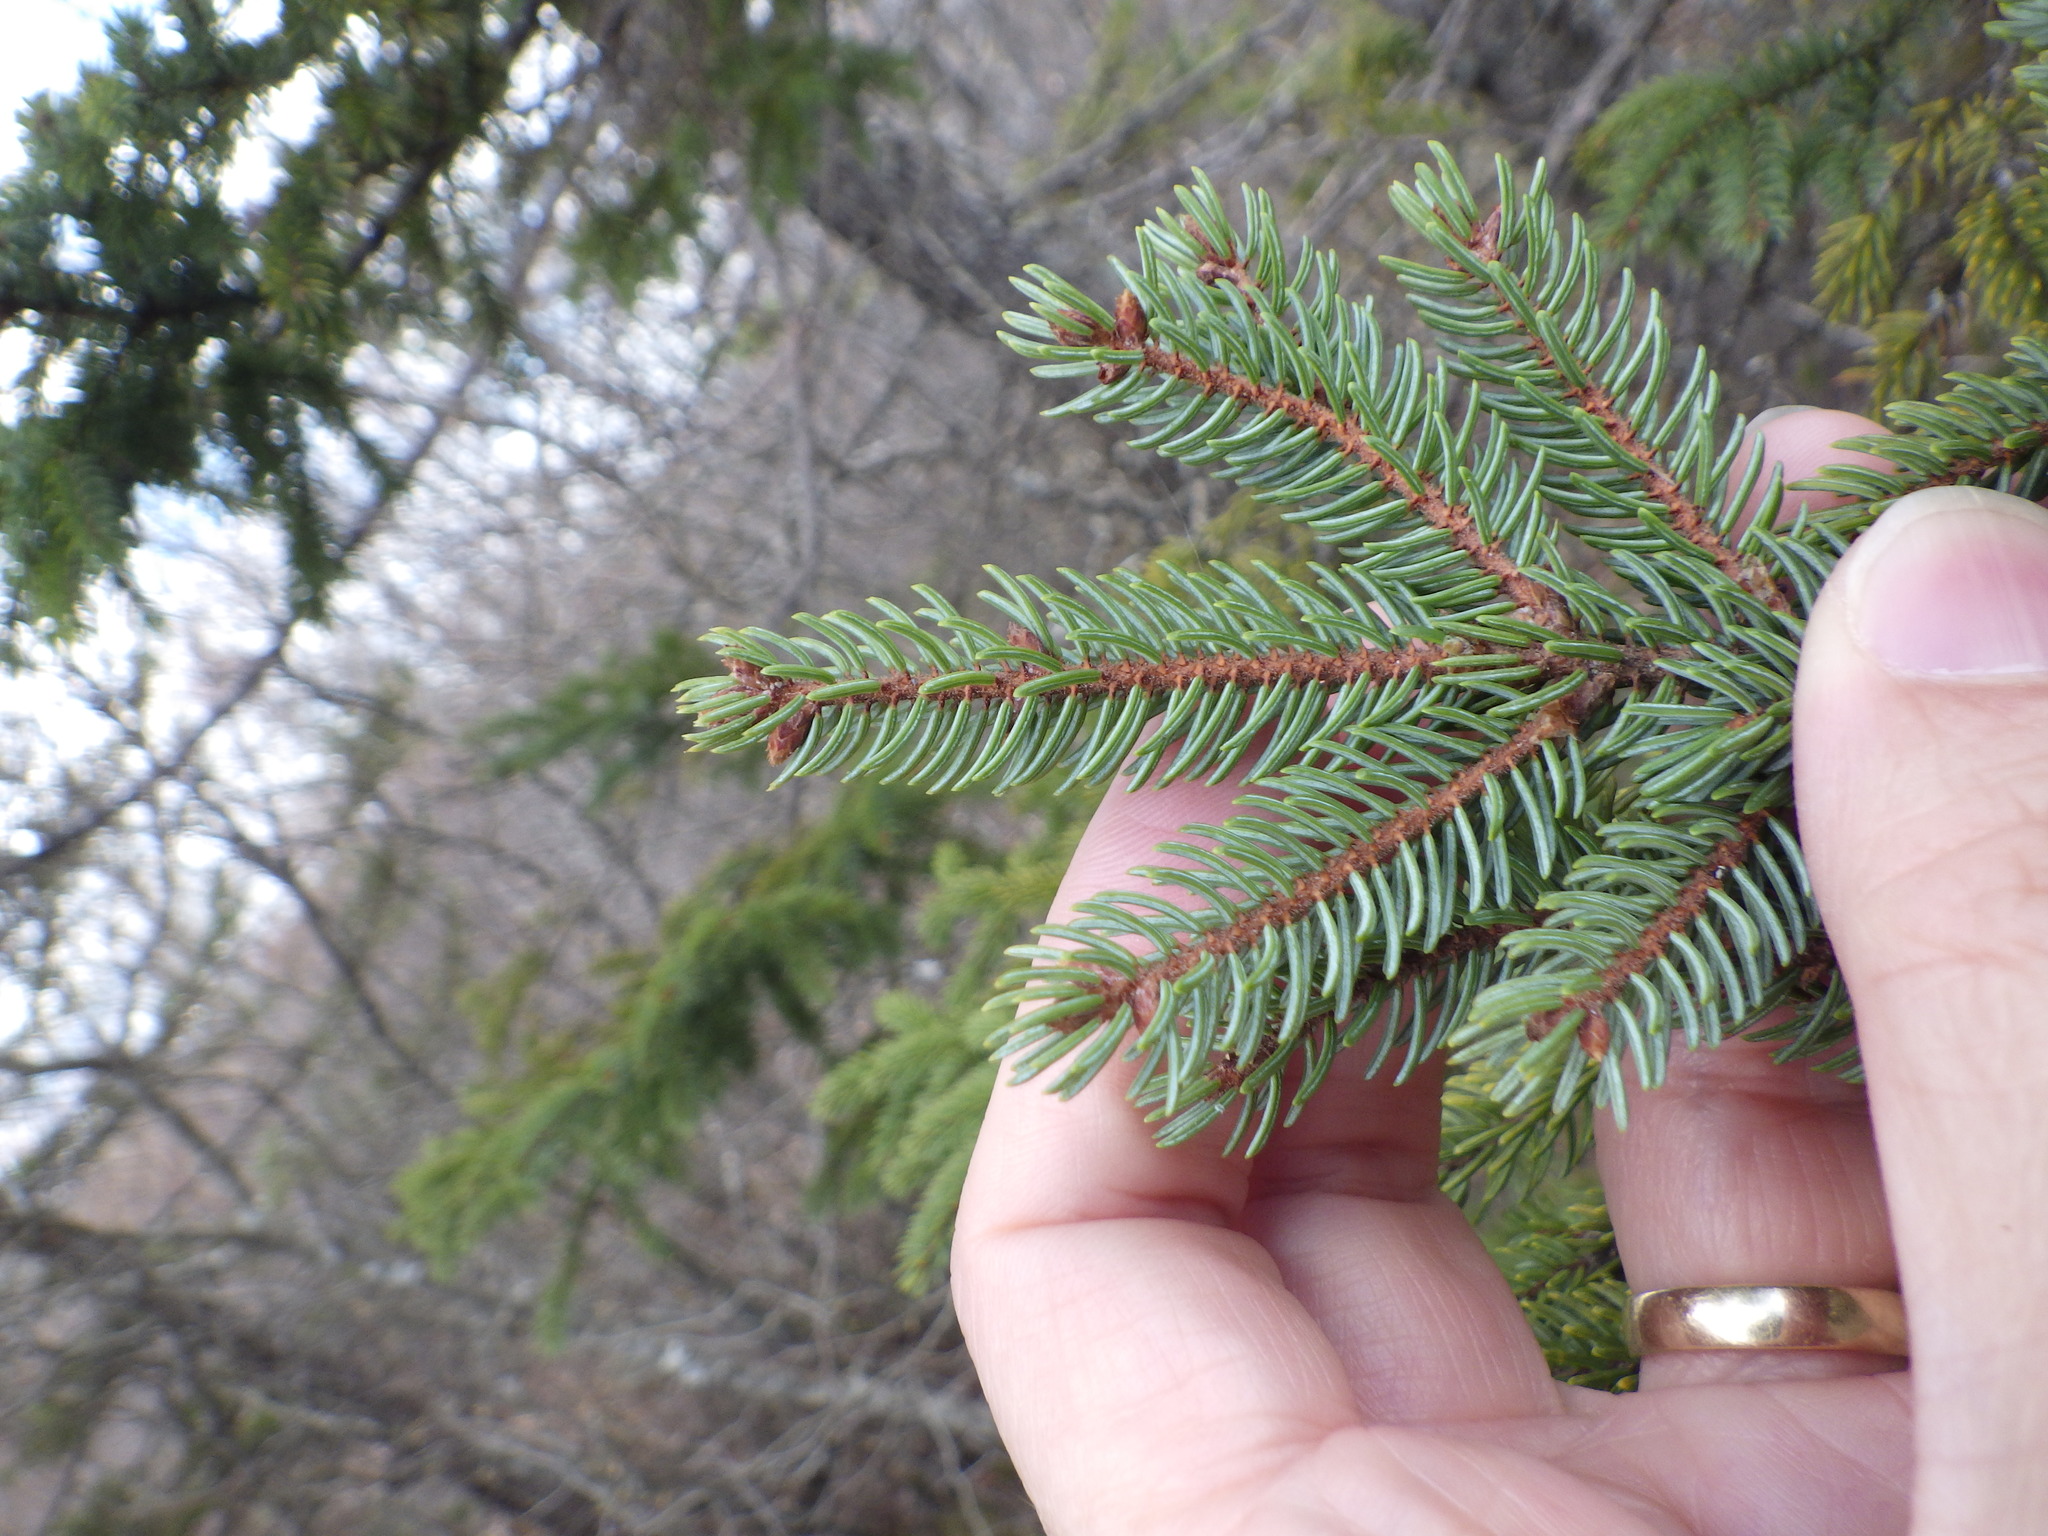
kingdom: Plantae
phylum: Tracheophyta
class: Pinopsida
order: Pinales
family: Pinaceae
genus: Picea
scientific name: Picea mariana
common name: Black spruce
